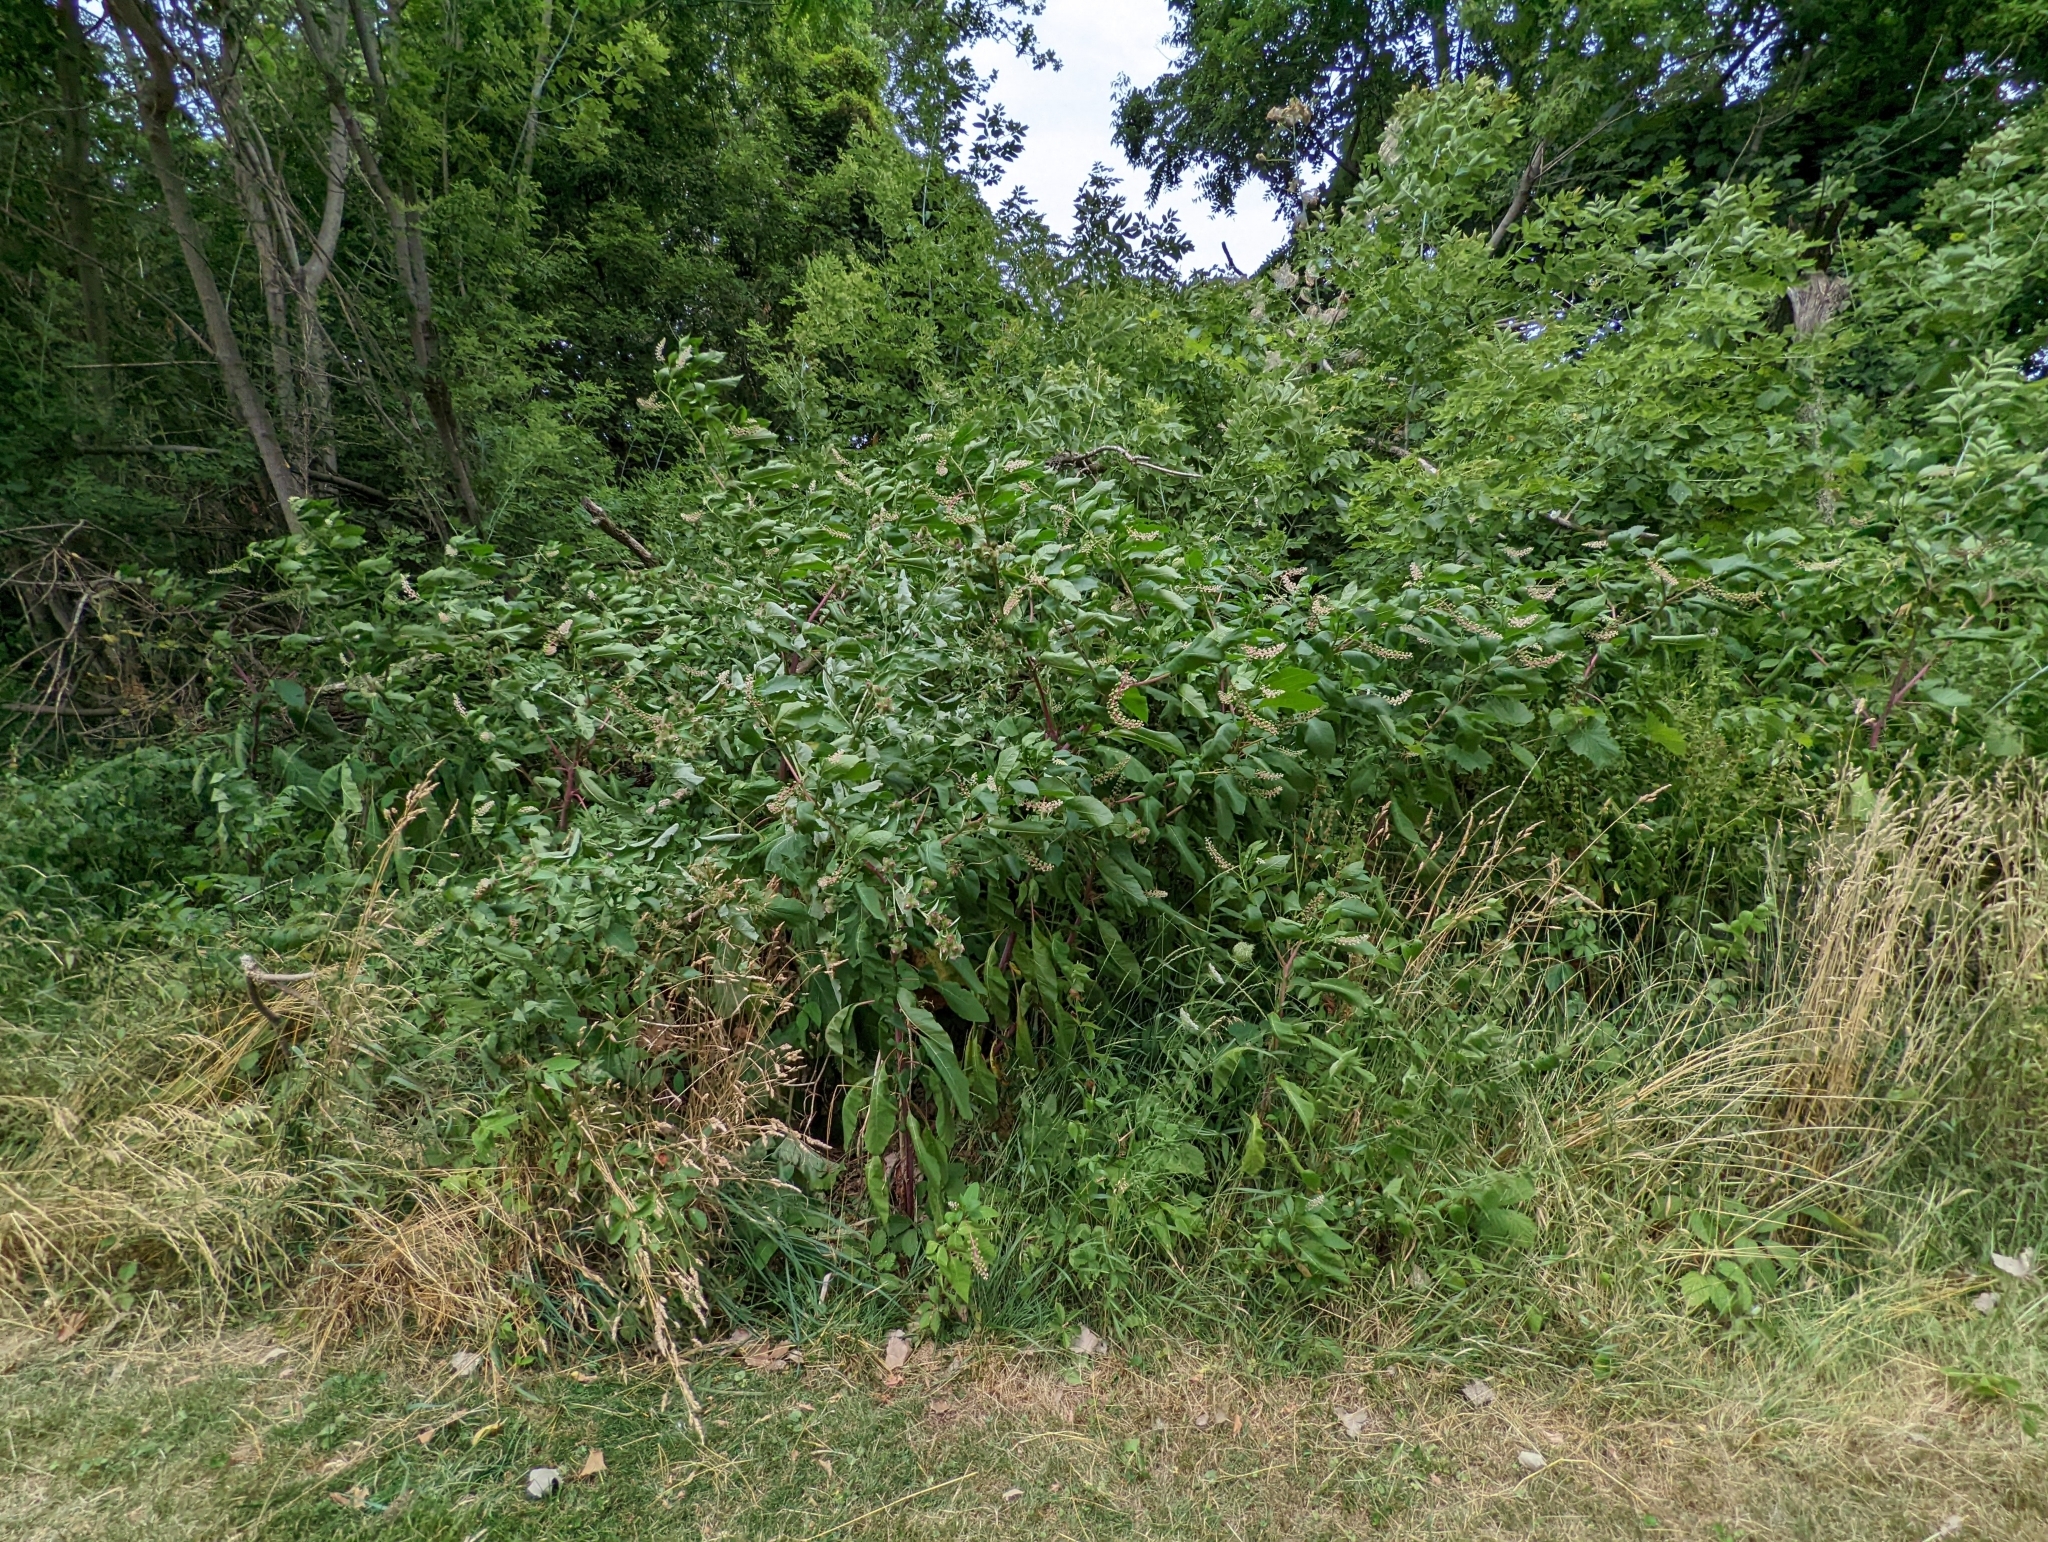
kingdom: Plantae
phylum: Tracheophyta
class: Magnoliopsida
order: Caryophyllales
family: Phytolaccaceae
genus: Phytolacca
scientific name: Phytolacca americana
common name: American pokeweed
